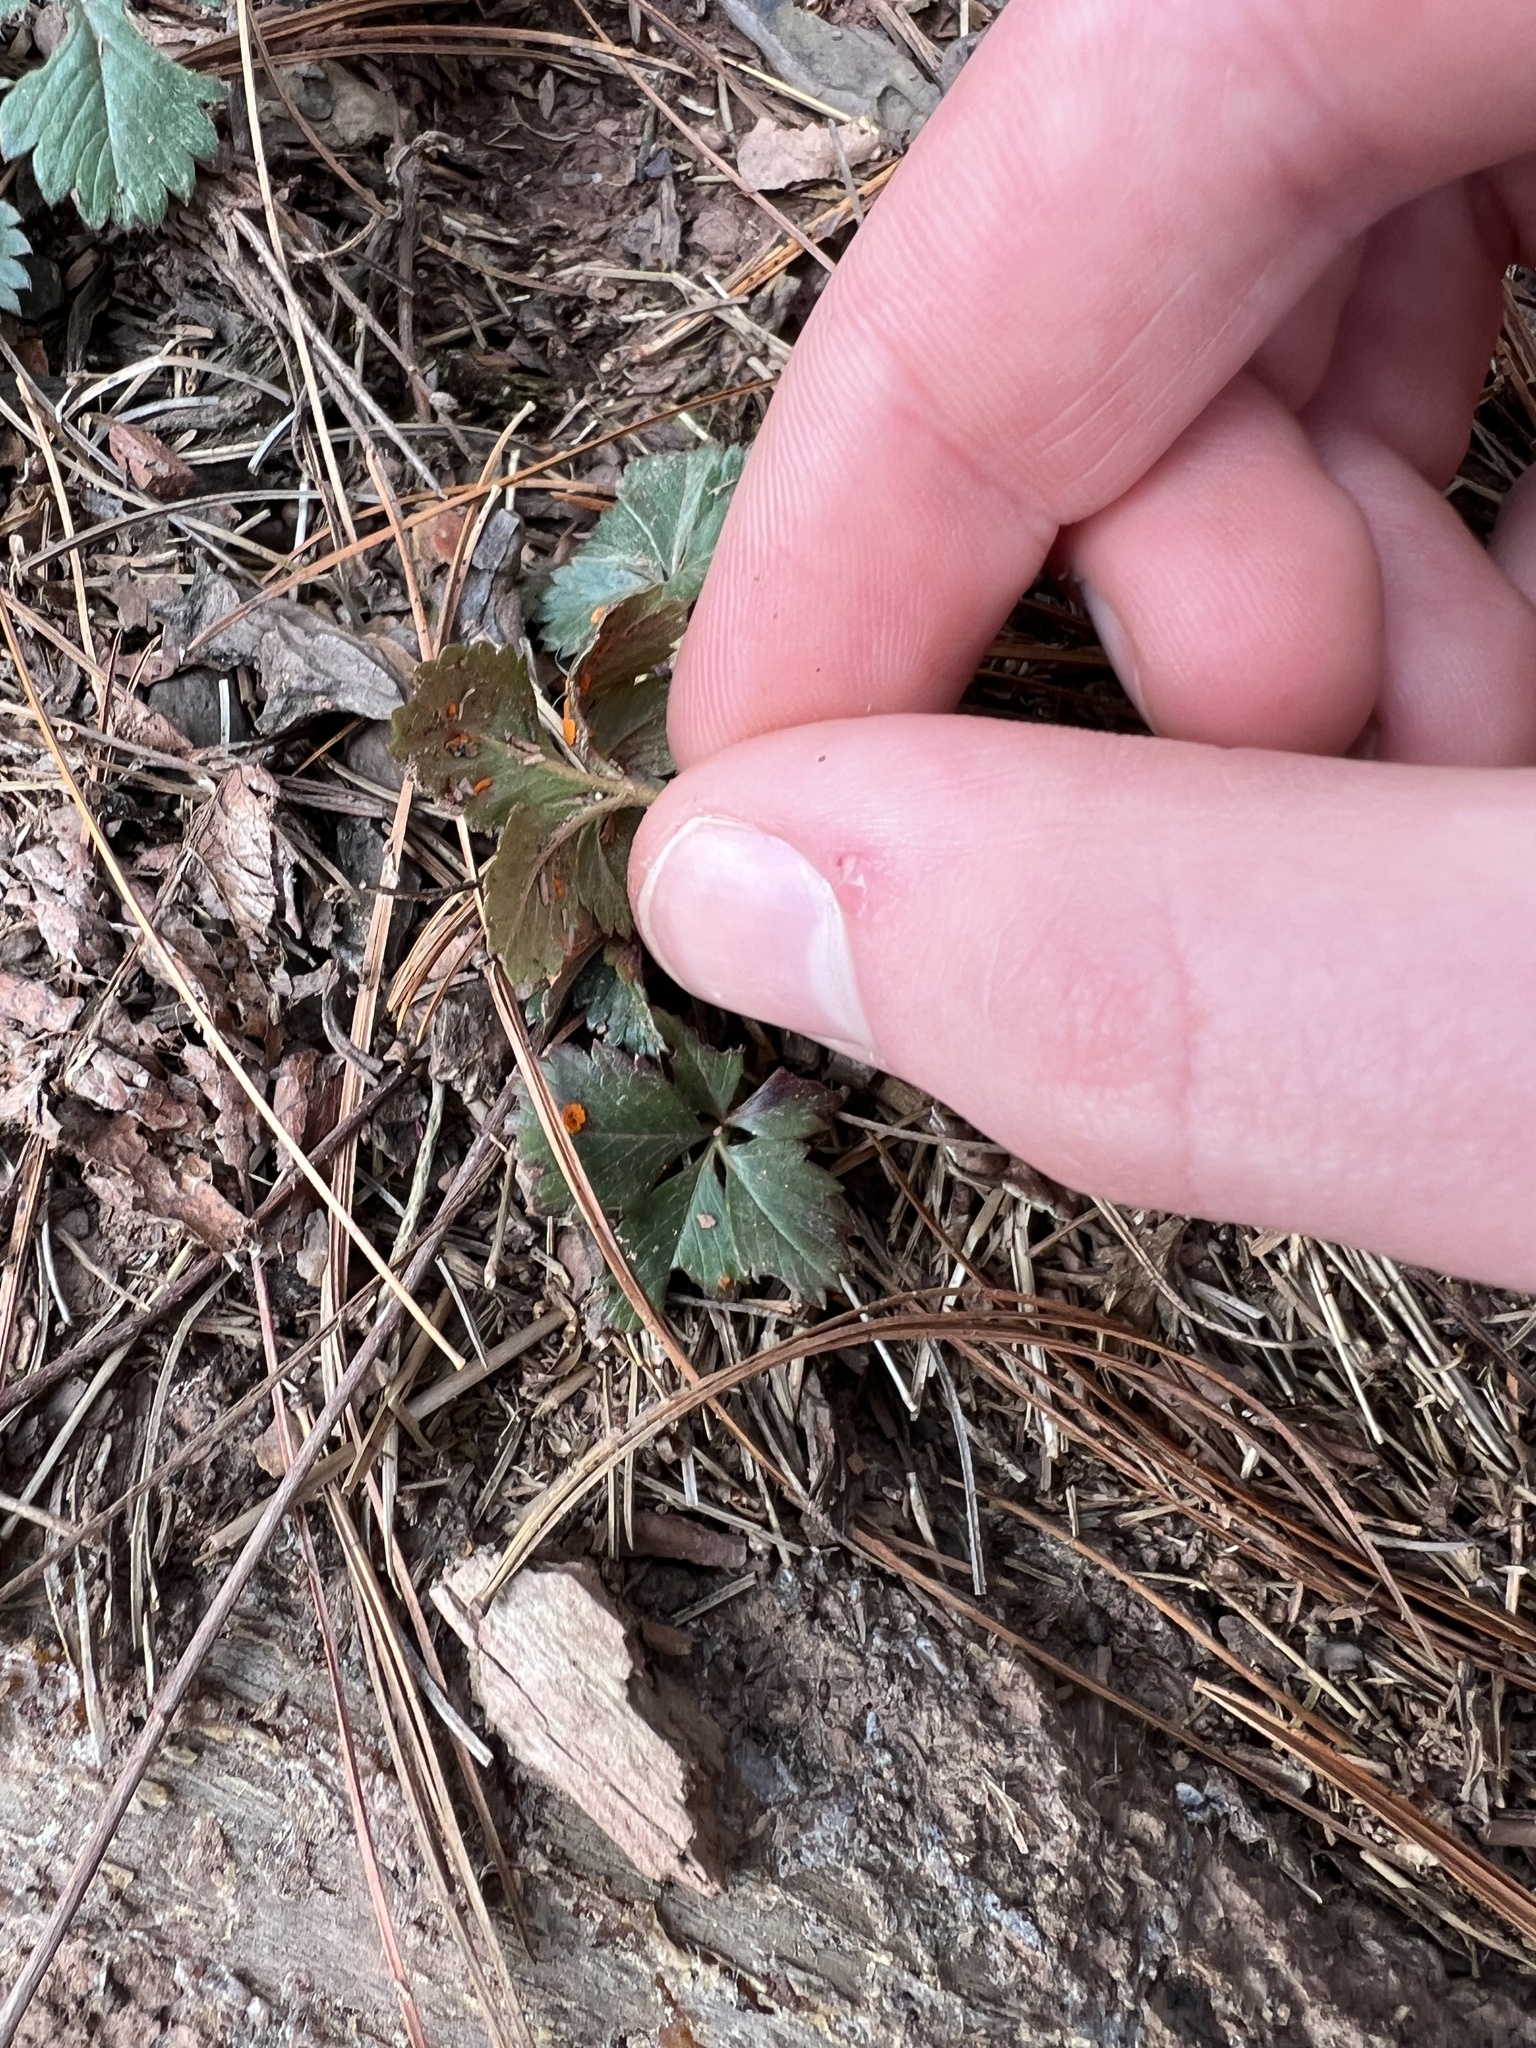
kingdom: Fungi
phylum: Basidiomycota
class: Pucciniomycetes
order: Pucciniales
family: Phragmidiaceae
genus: Phragmidium
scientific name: Phragmidium potentillae
